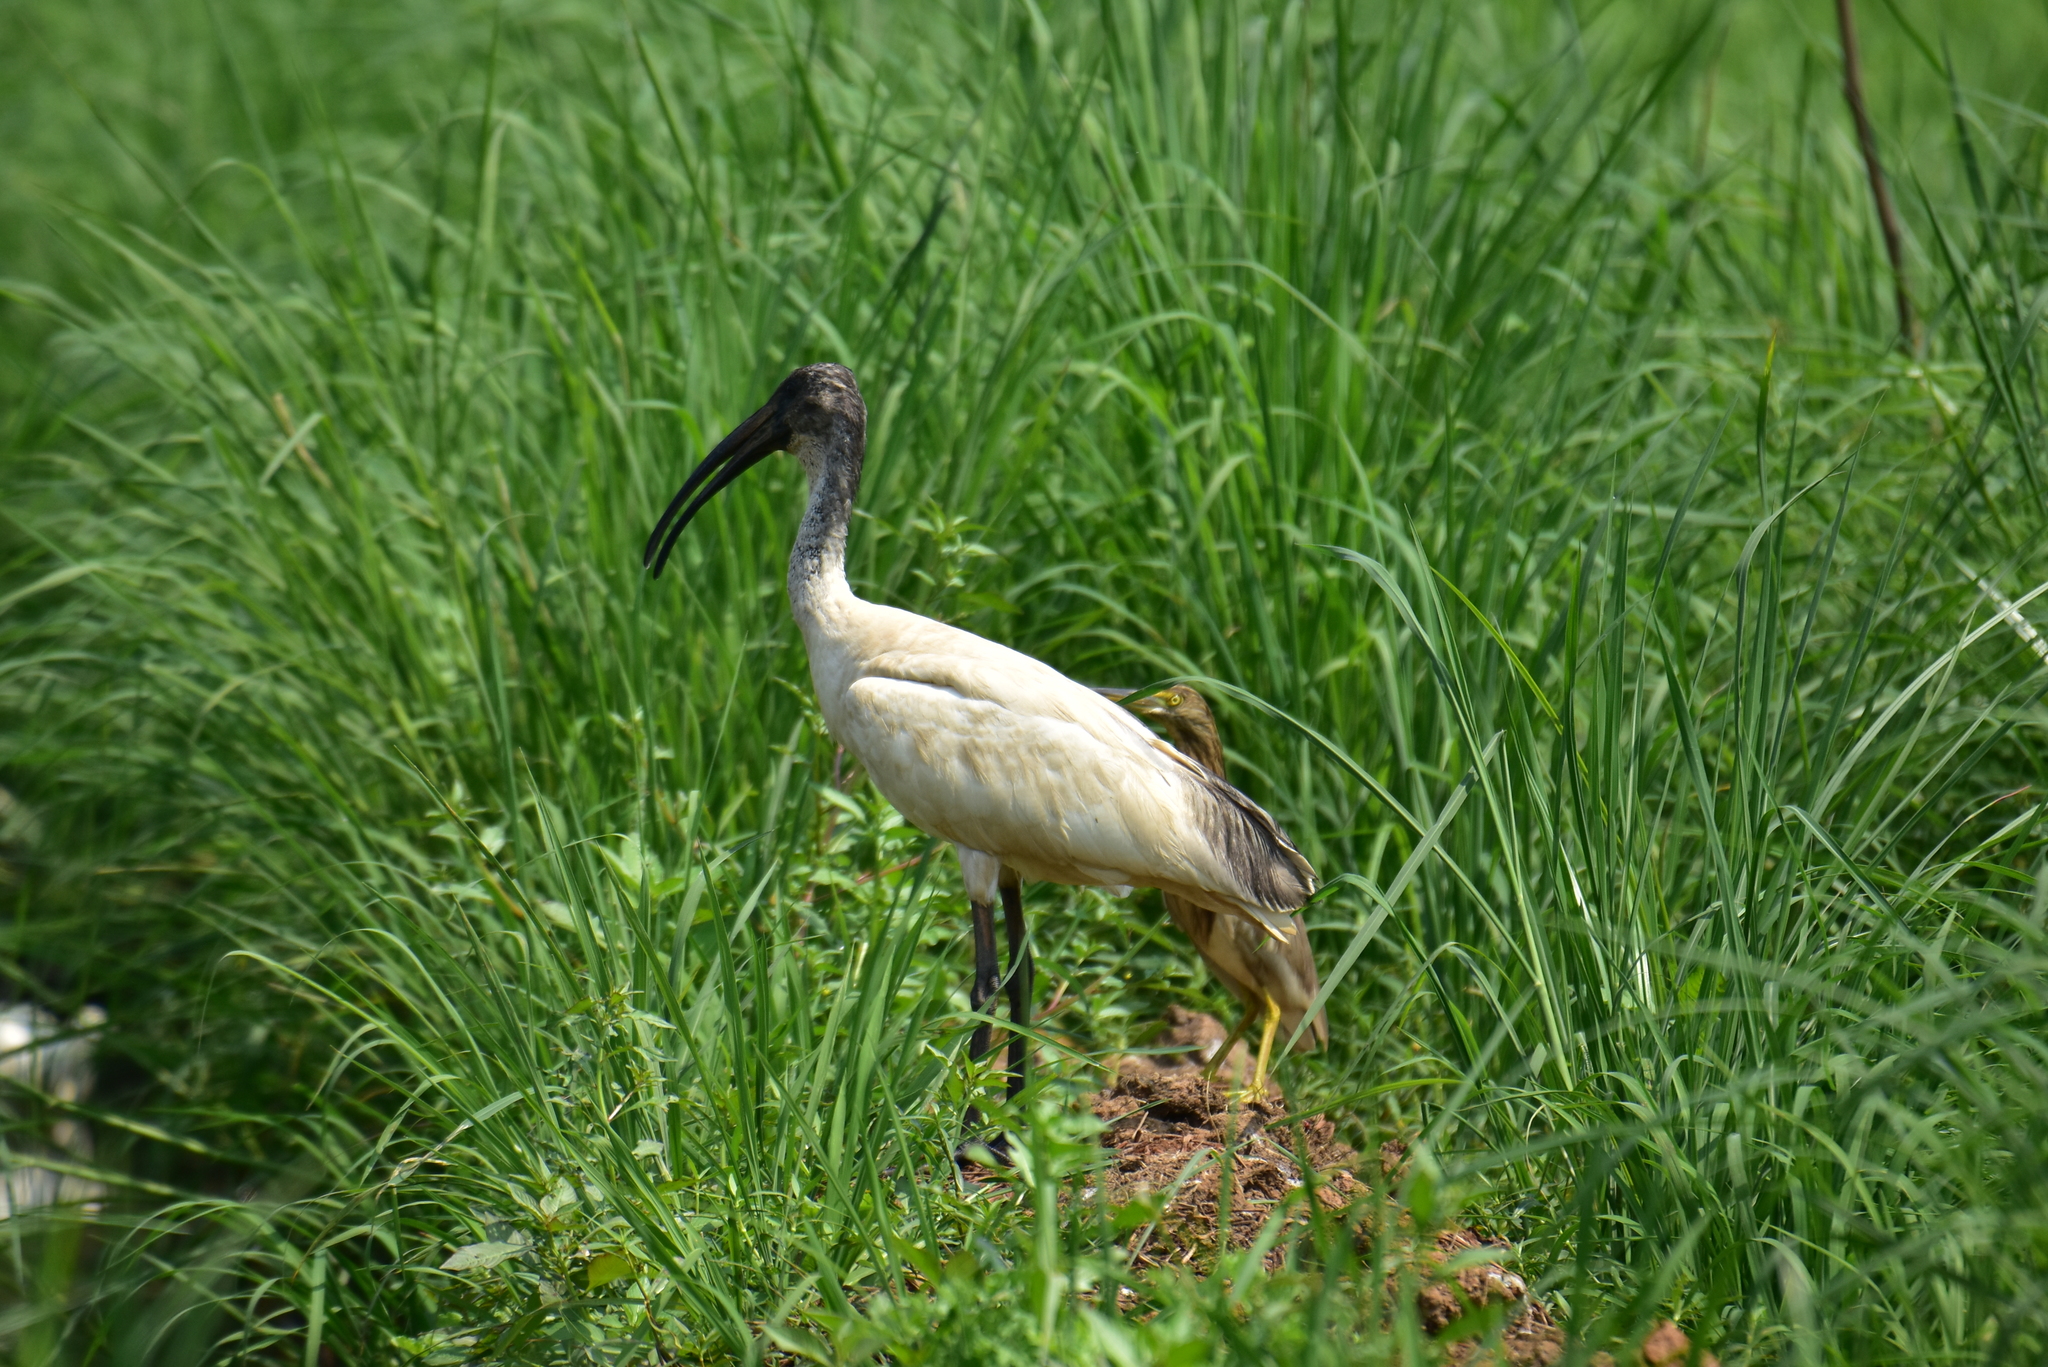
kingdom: Animalia
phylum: Chordata
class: Aves
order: Pelecaniformes
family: Threskiornithidae
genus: Threskiornis
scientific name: Threskiornis melanocephalus
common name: Black-headed ibis
